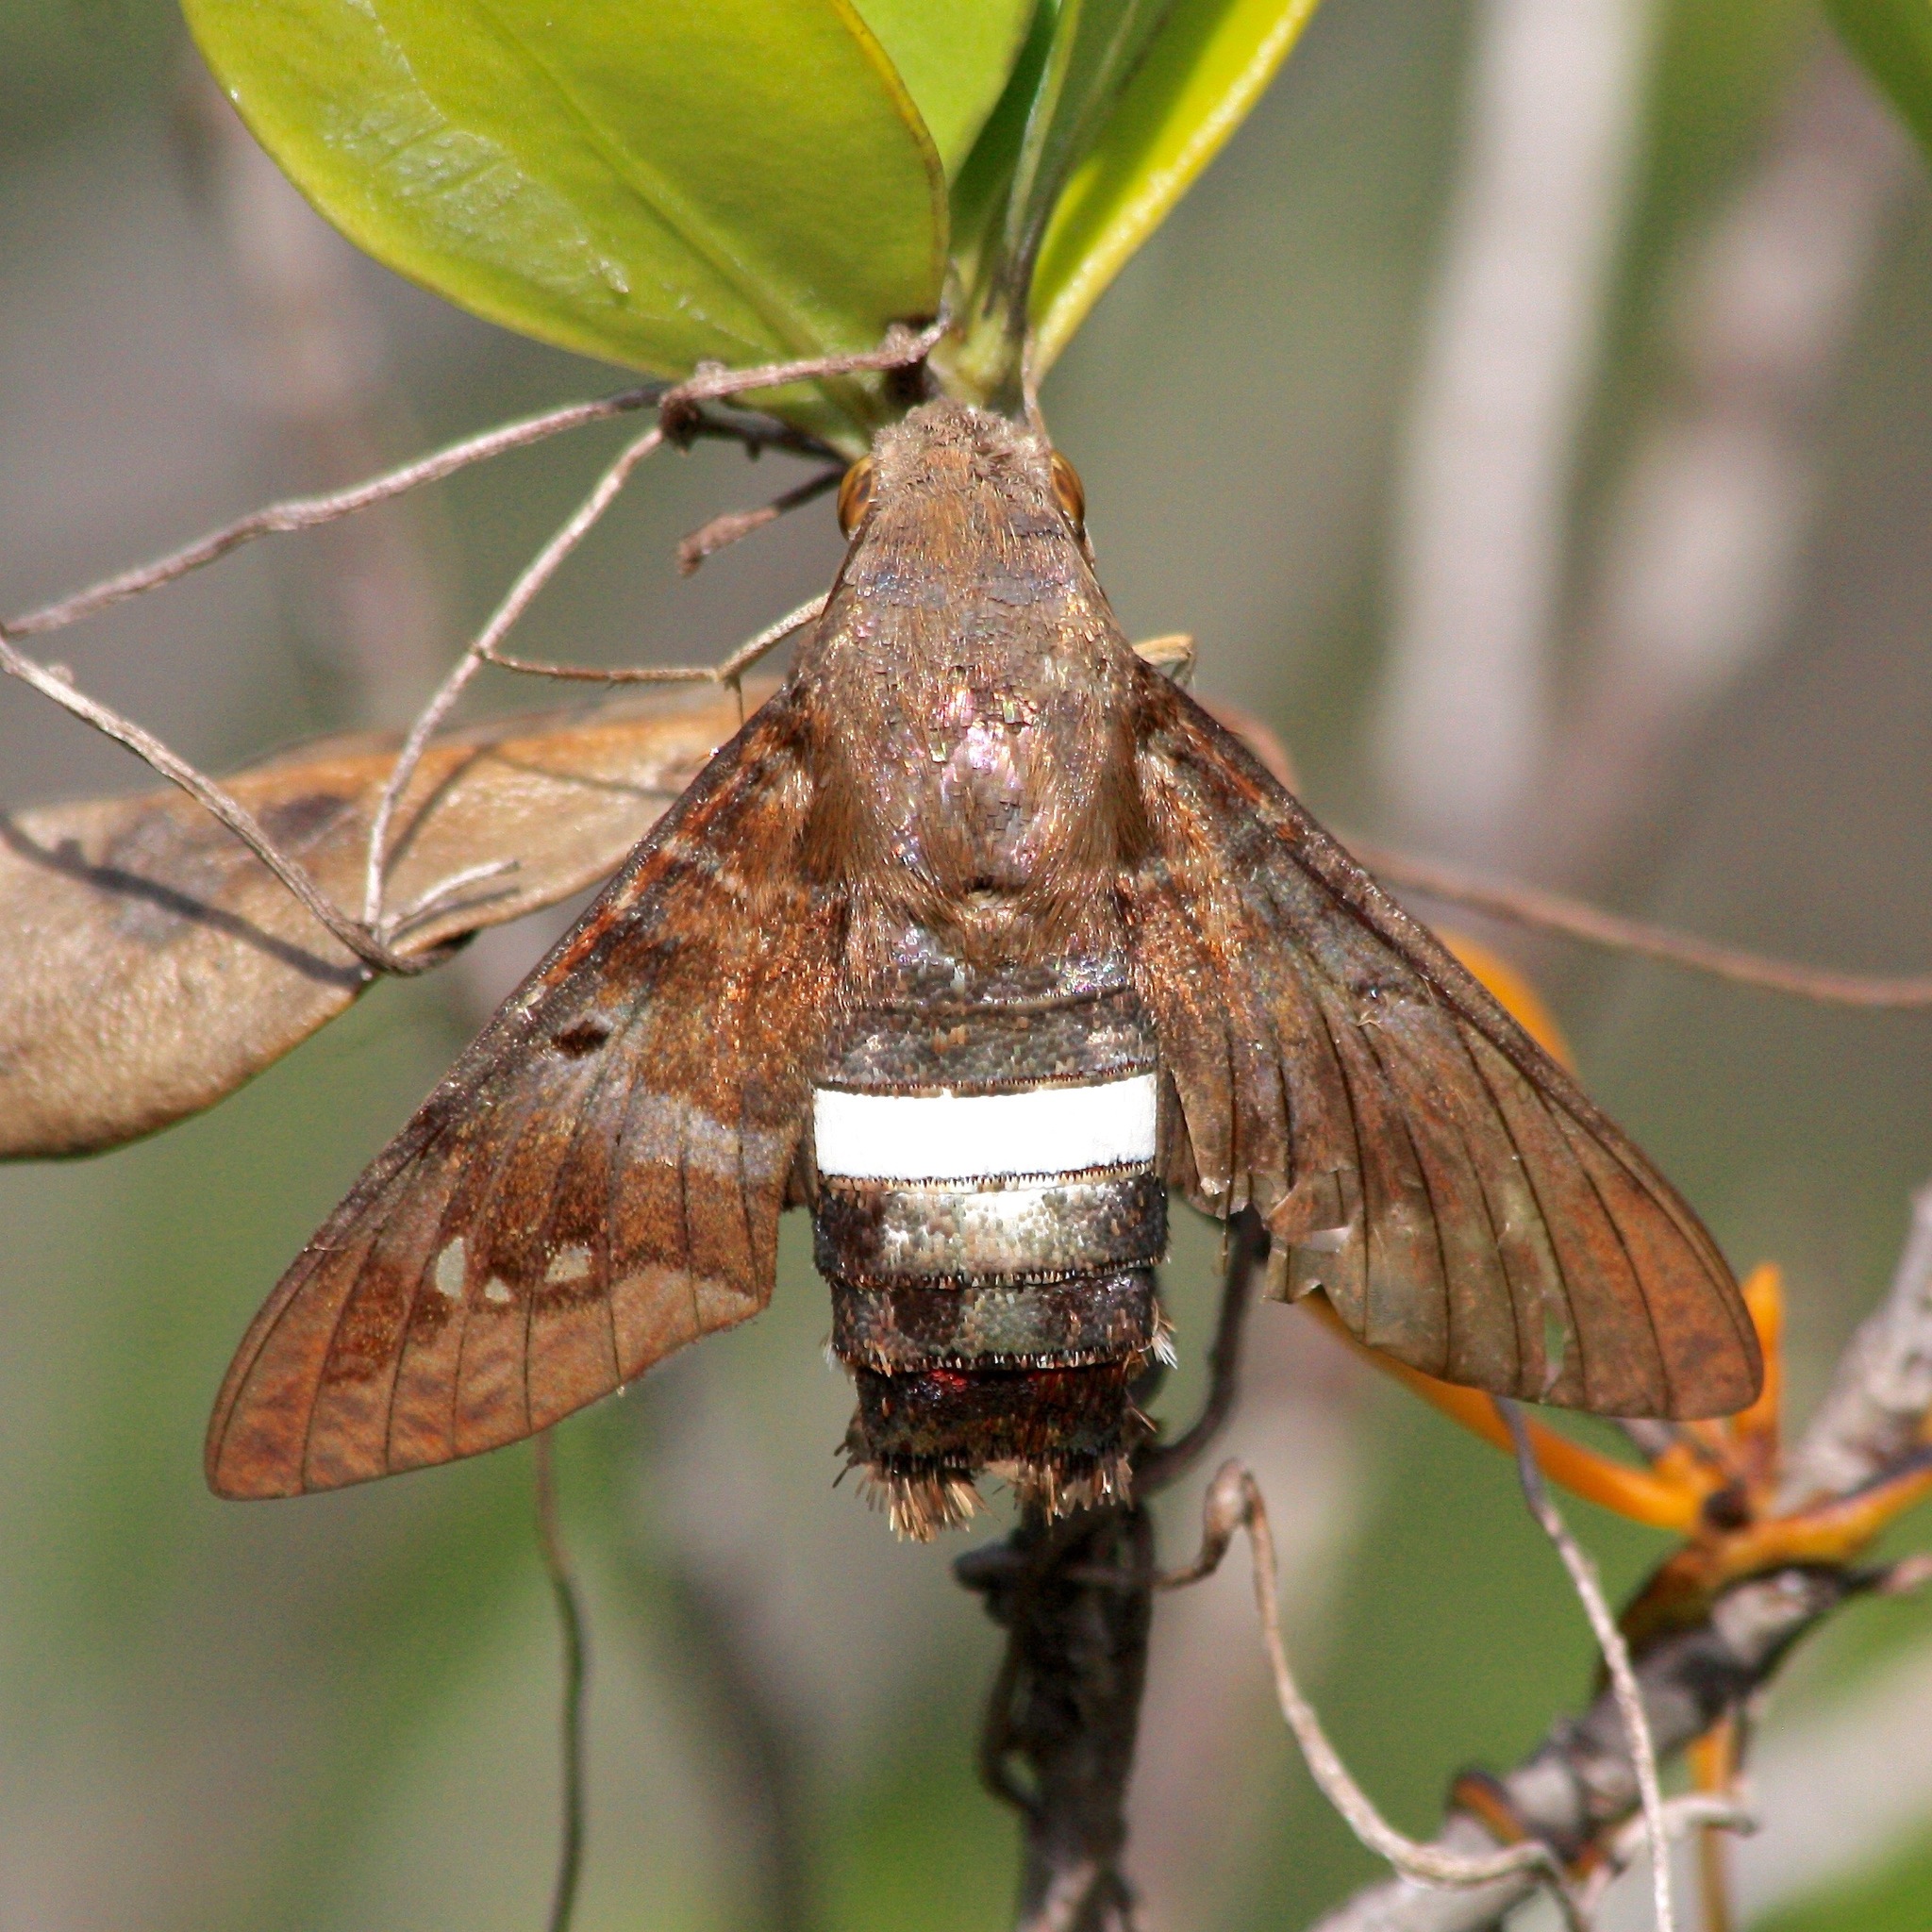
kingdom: Animalia
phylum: Arthropoda
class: Insecta
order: Lepidoptera
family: Sphingidae
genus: Aellopos
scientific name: Aellopos tantalus
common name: Tantalus sphinx
